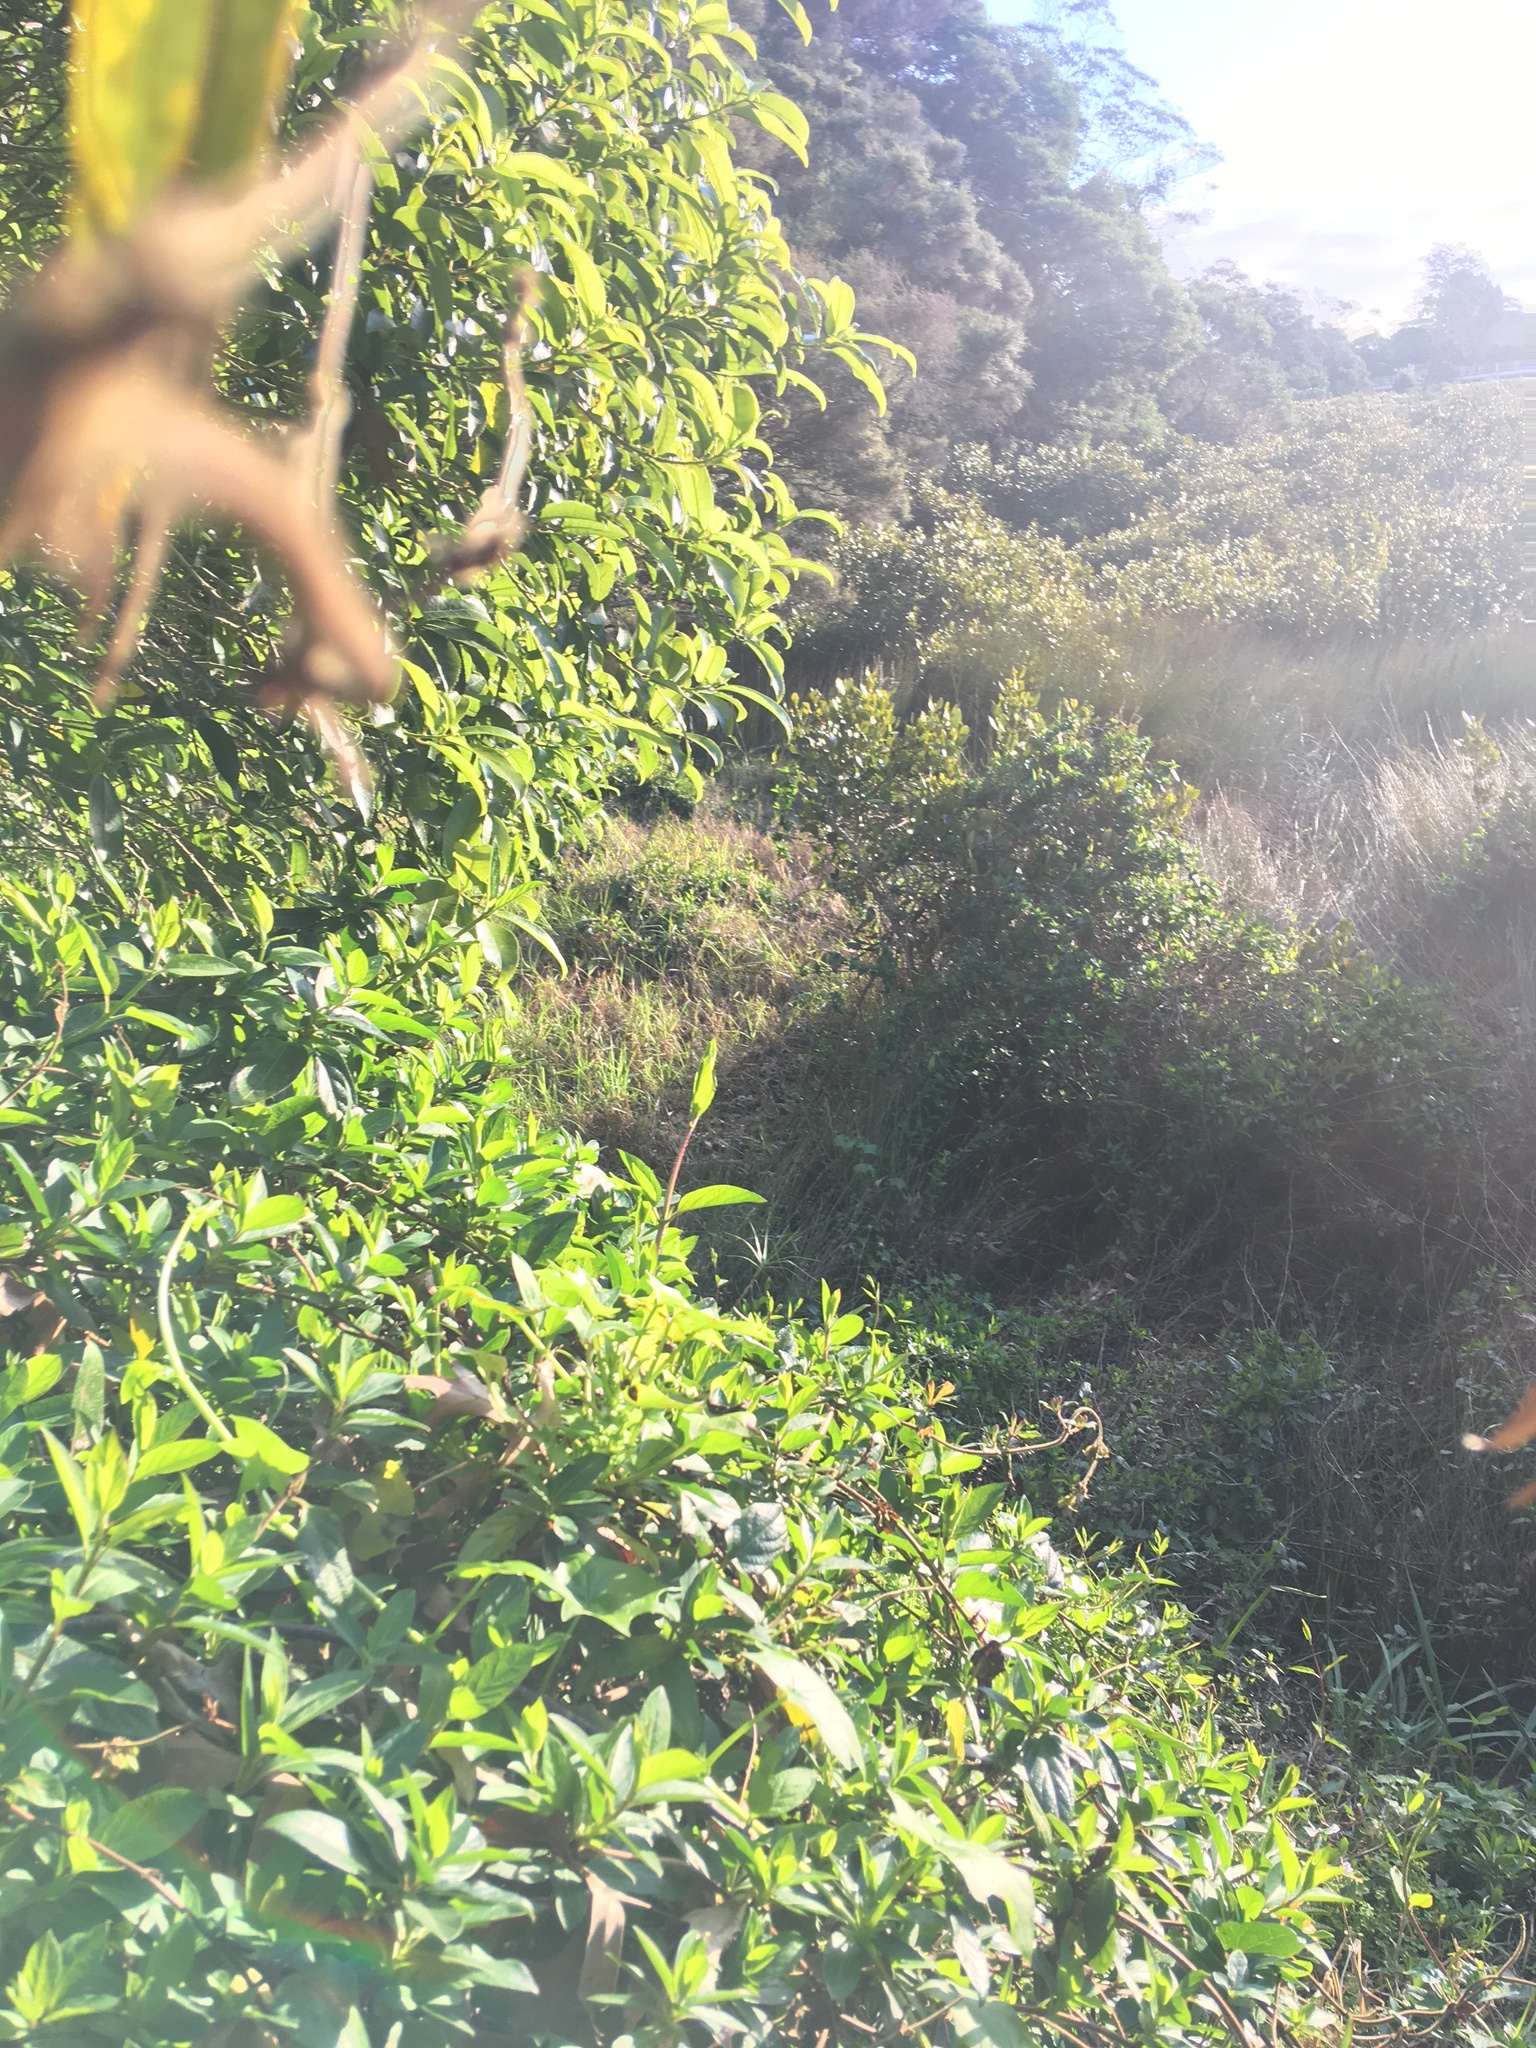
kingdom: Plantae
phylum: Tracheophyta
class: Magnoliopsida
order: Cucurbitales
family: Corynocarpaceae
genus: Corynocarpus
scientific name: Corynocarpus laevigatus
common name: New zealand laurel
